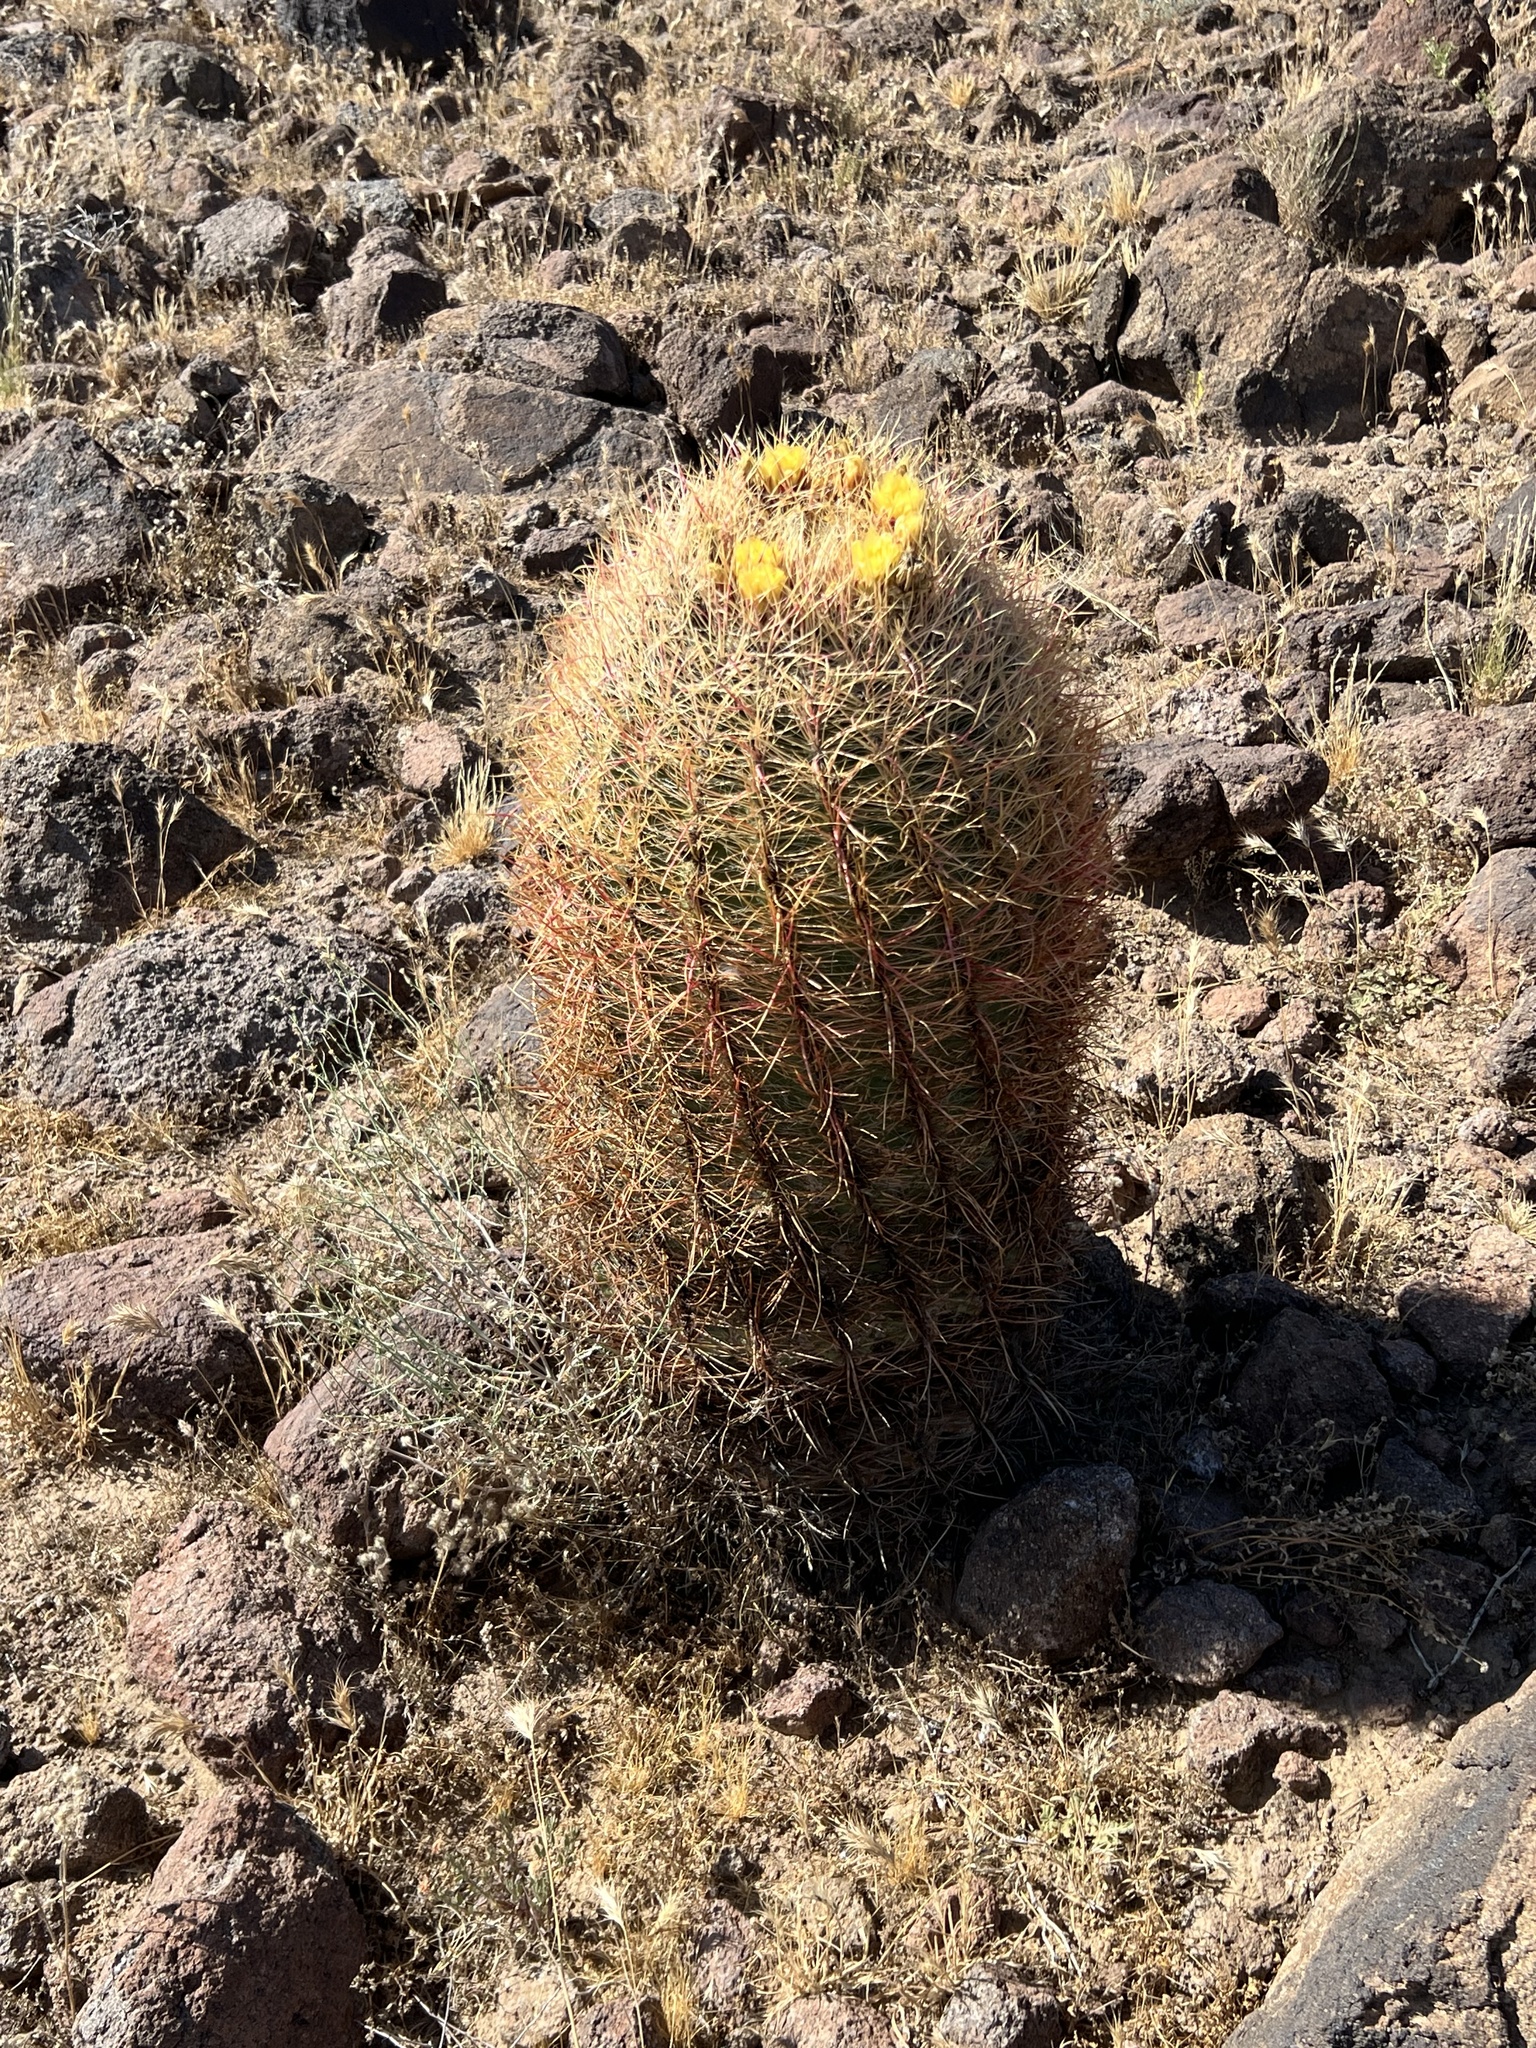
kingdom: Plantae
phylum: Tracheophyta
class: Magnoliopsida
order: Caryophyllales
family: Cactaceae
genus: Ferocactus
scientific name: Ferocactus cylindraceus
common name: California barrel cactus
